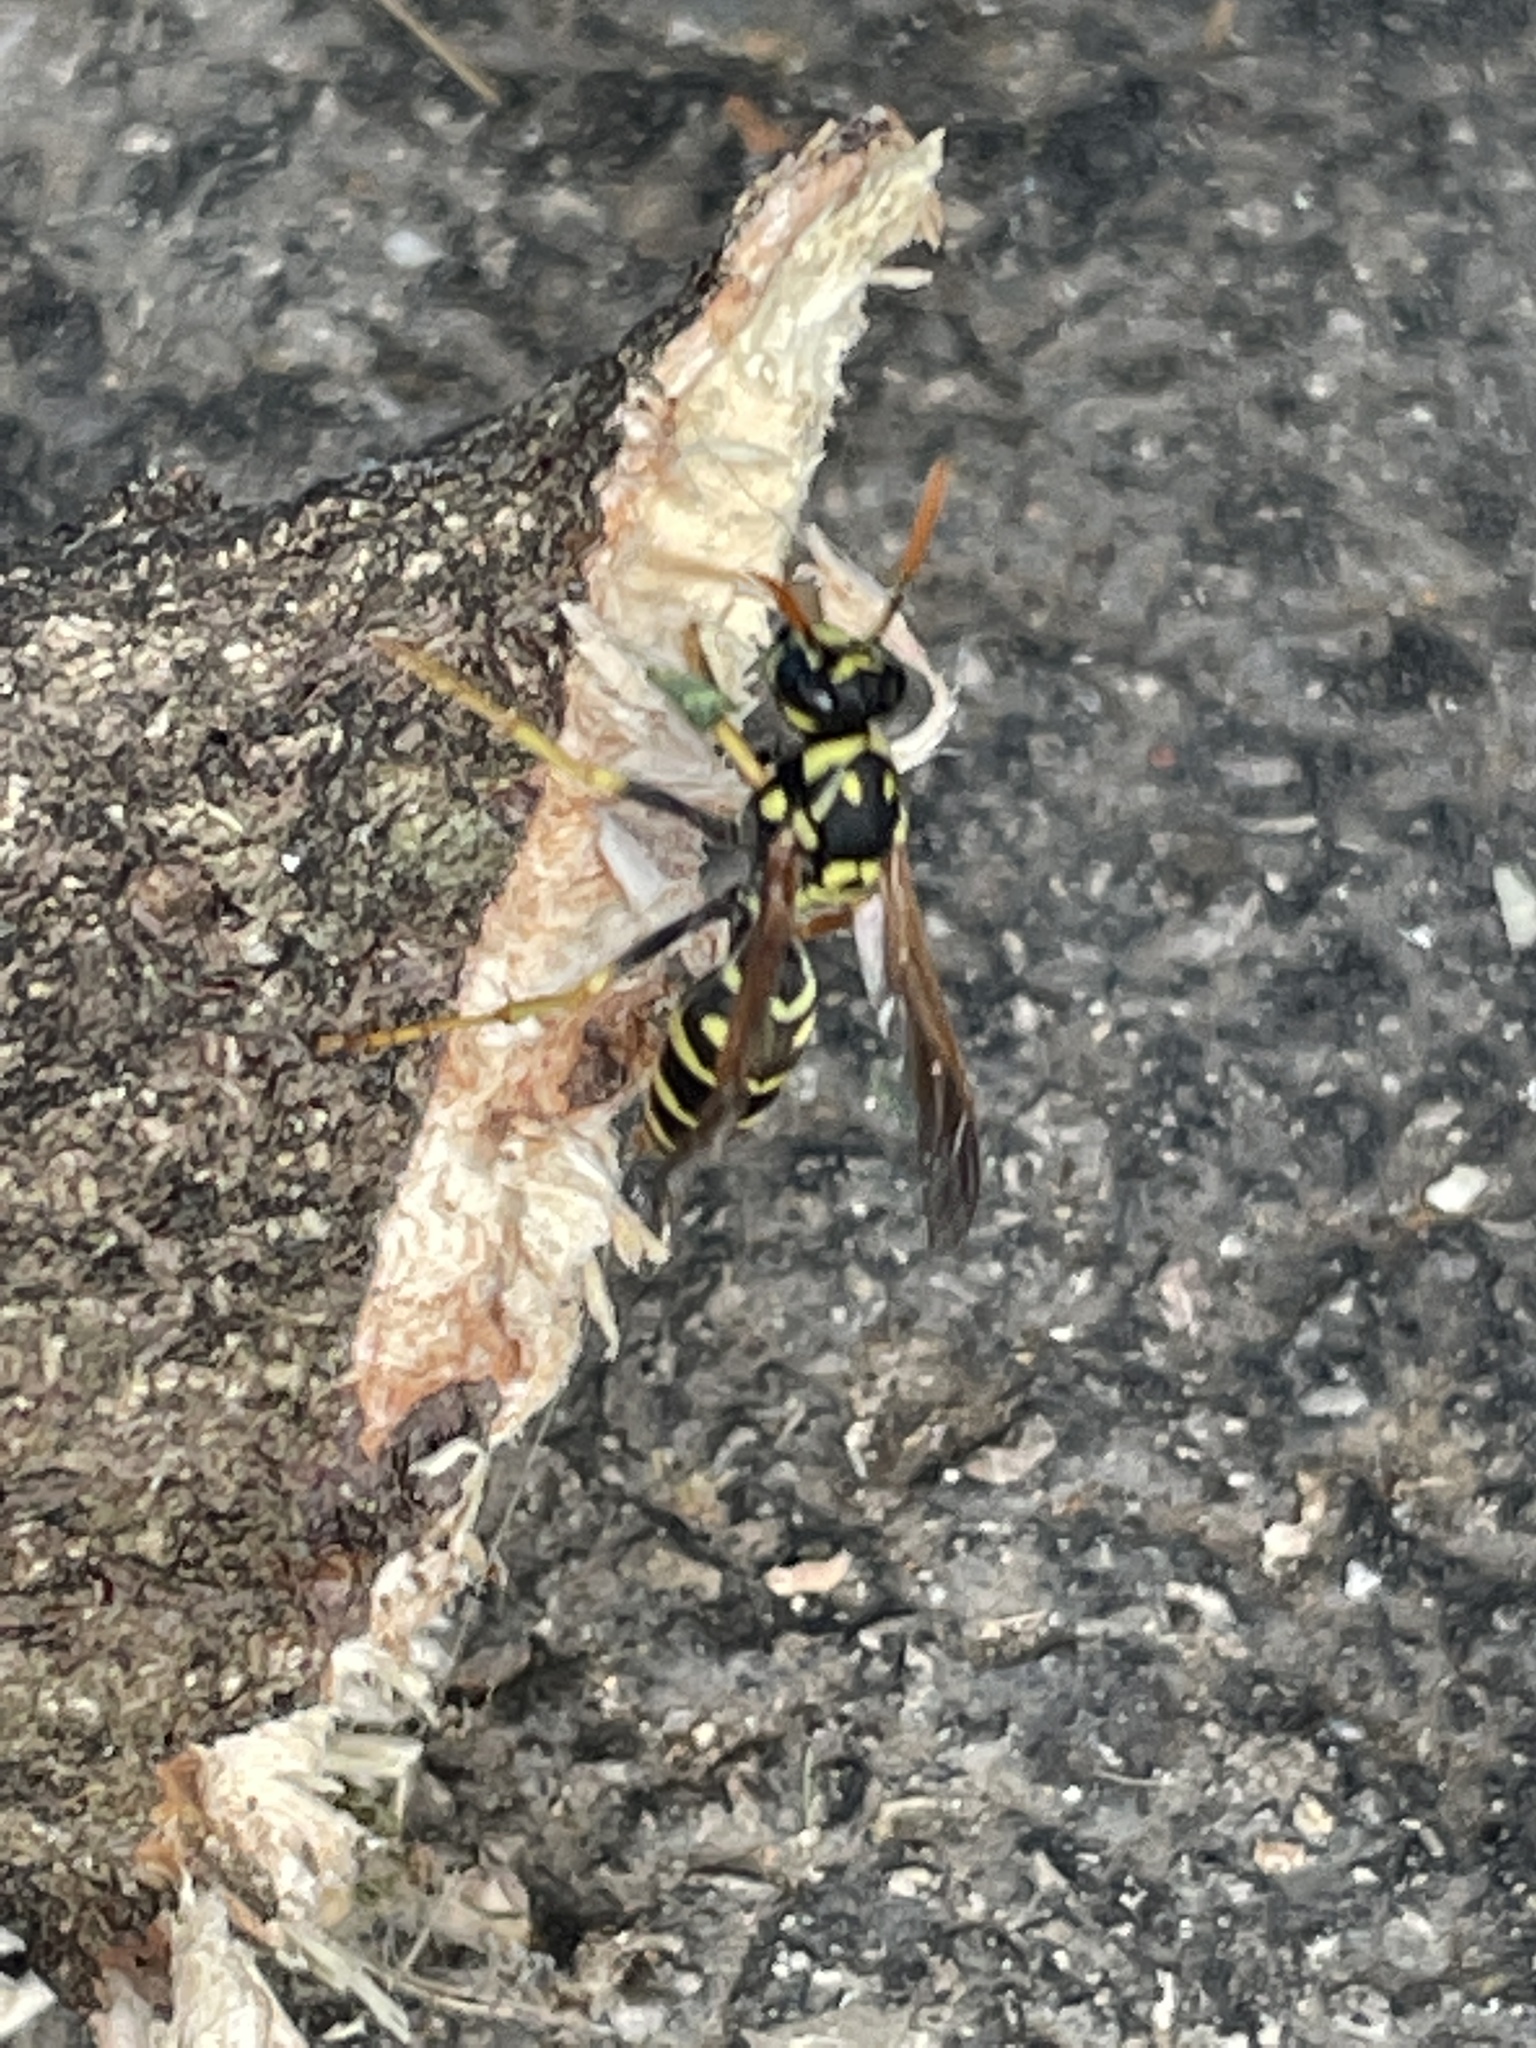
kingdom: Animalia
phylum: Arthropoda
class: Insecta
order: Hymenoptera
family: Eumenidae
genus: Polistes
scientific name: Polistes dominula
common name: Paper wasp
